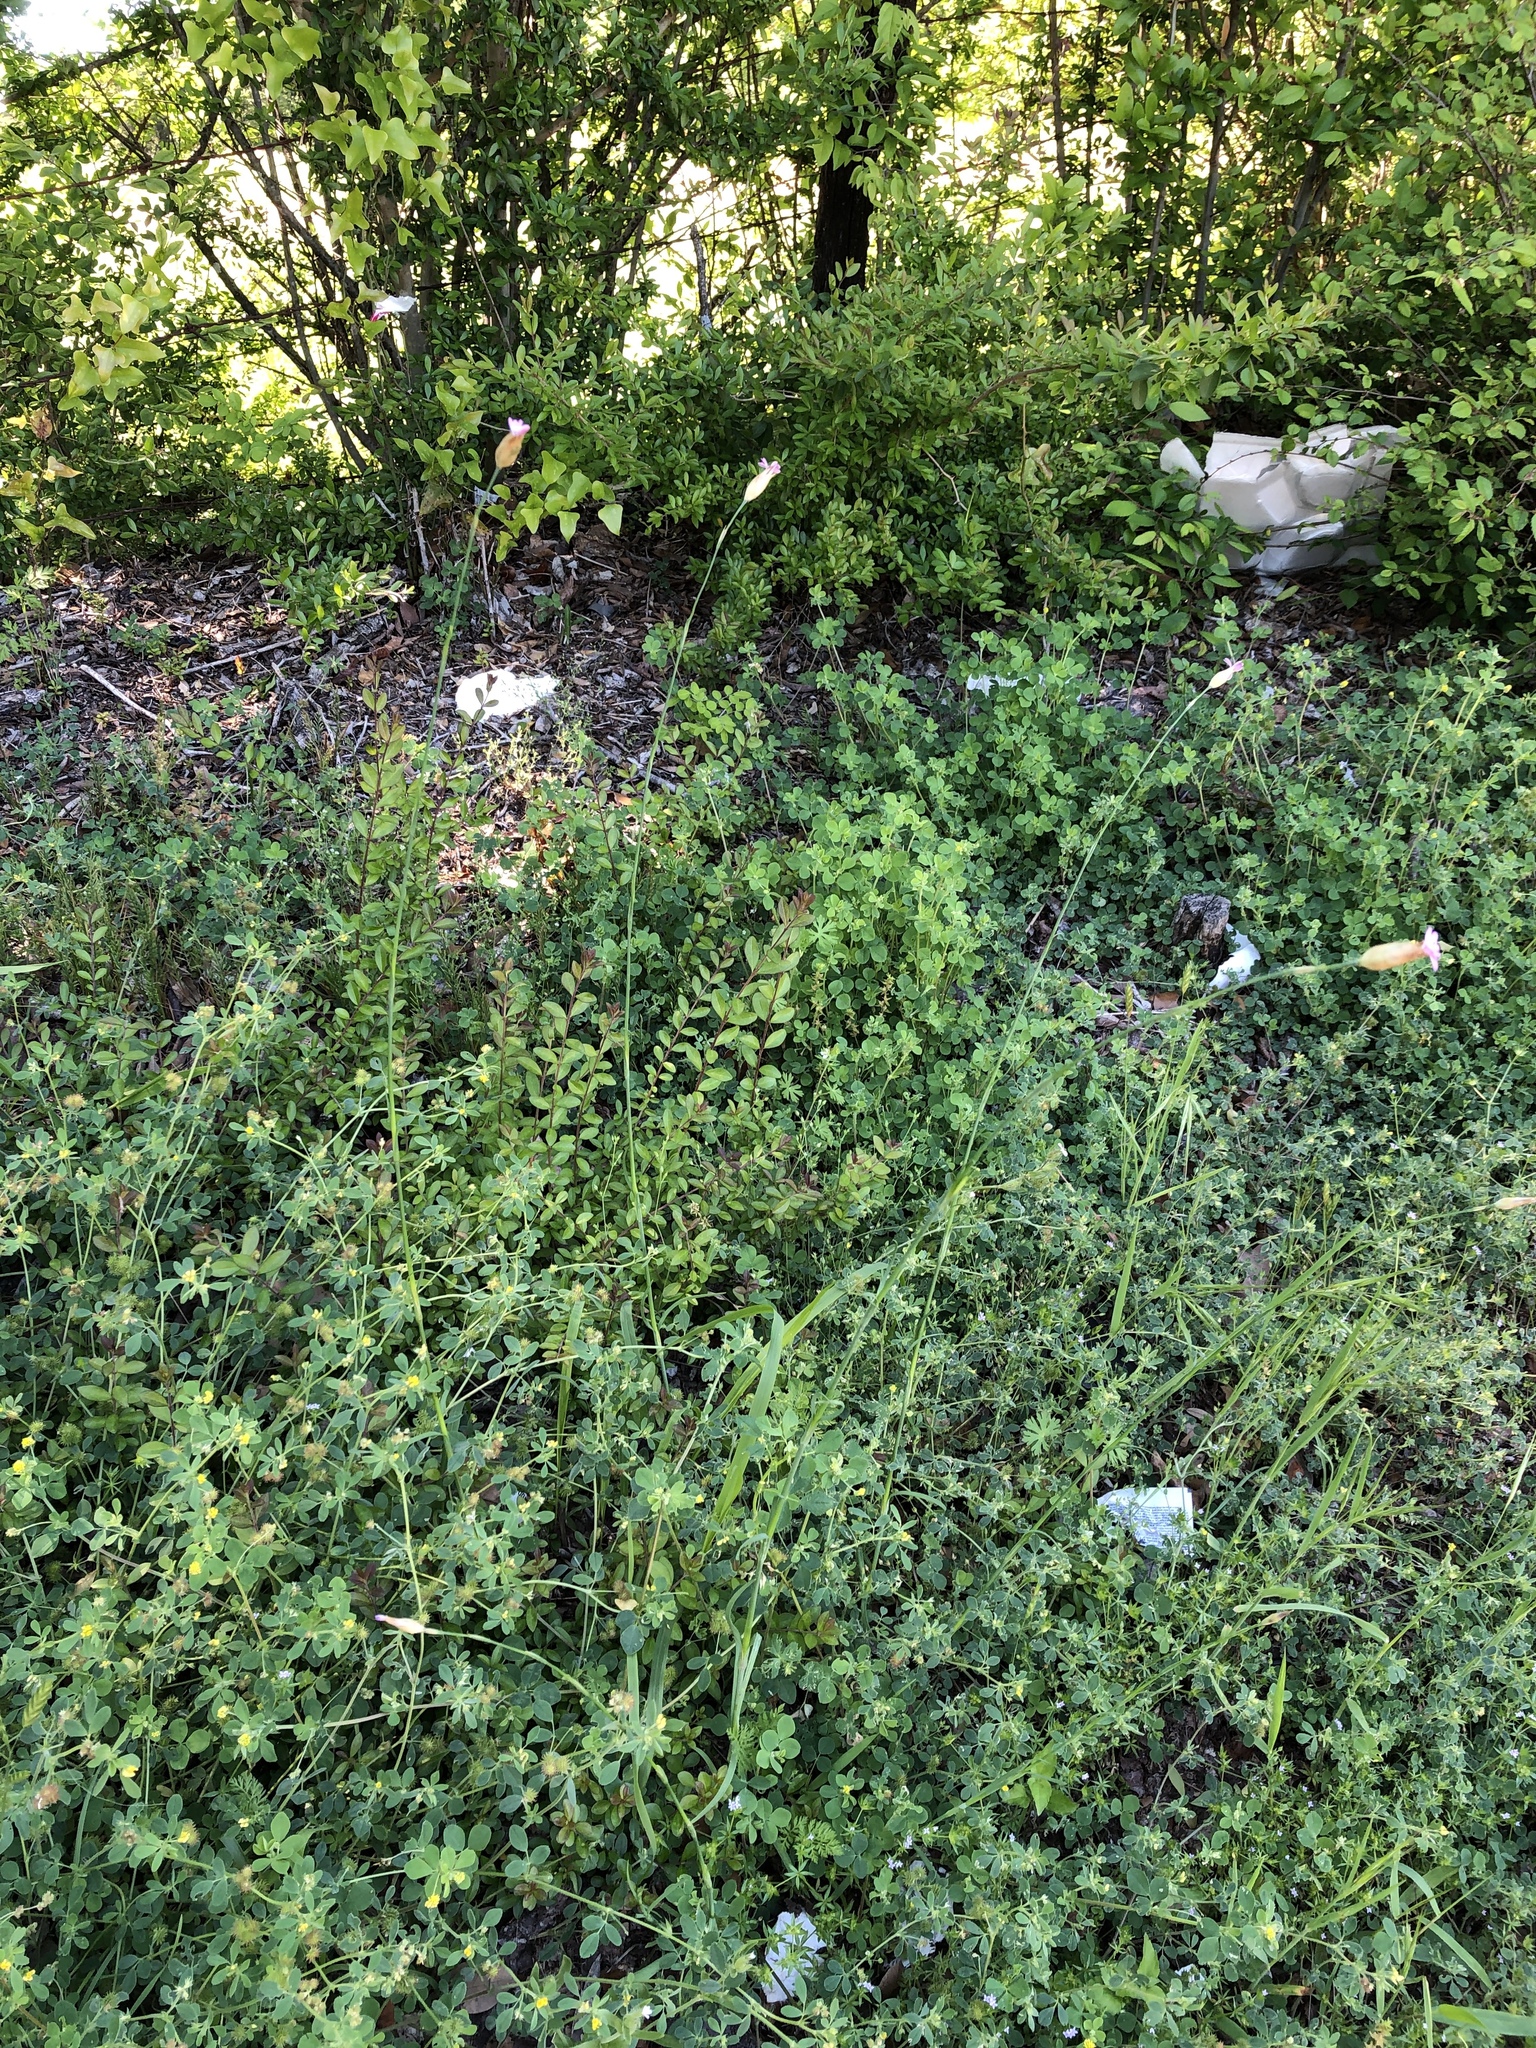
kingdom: Plantae
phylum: Tracheophyta
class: Magnoliopsida
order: Caryophyllales
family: Caryophyllaceae
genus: Petrorhagia
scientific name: Petrorhagia dubia
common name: Hairypink
